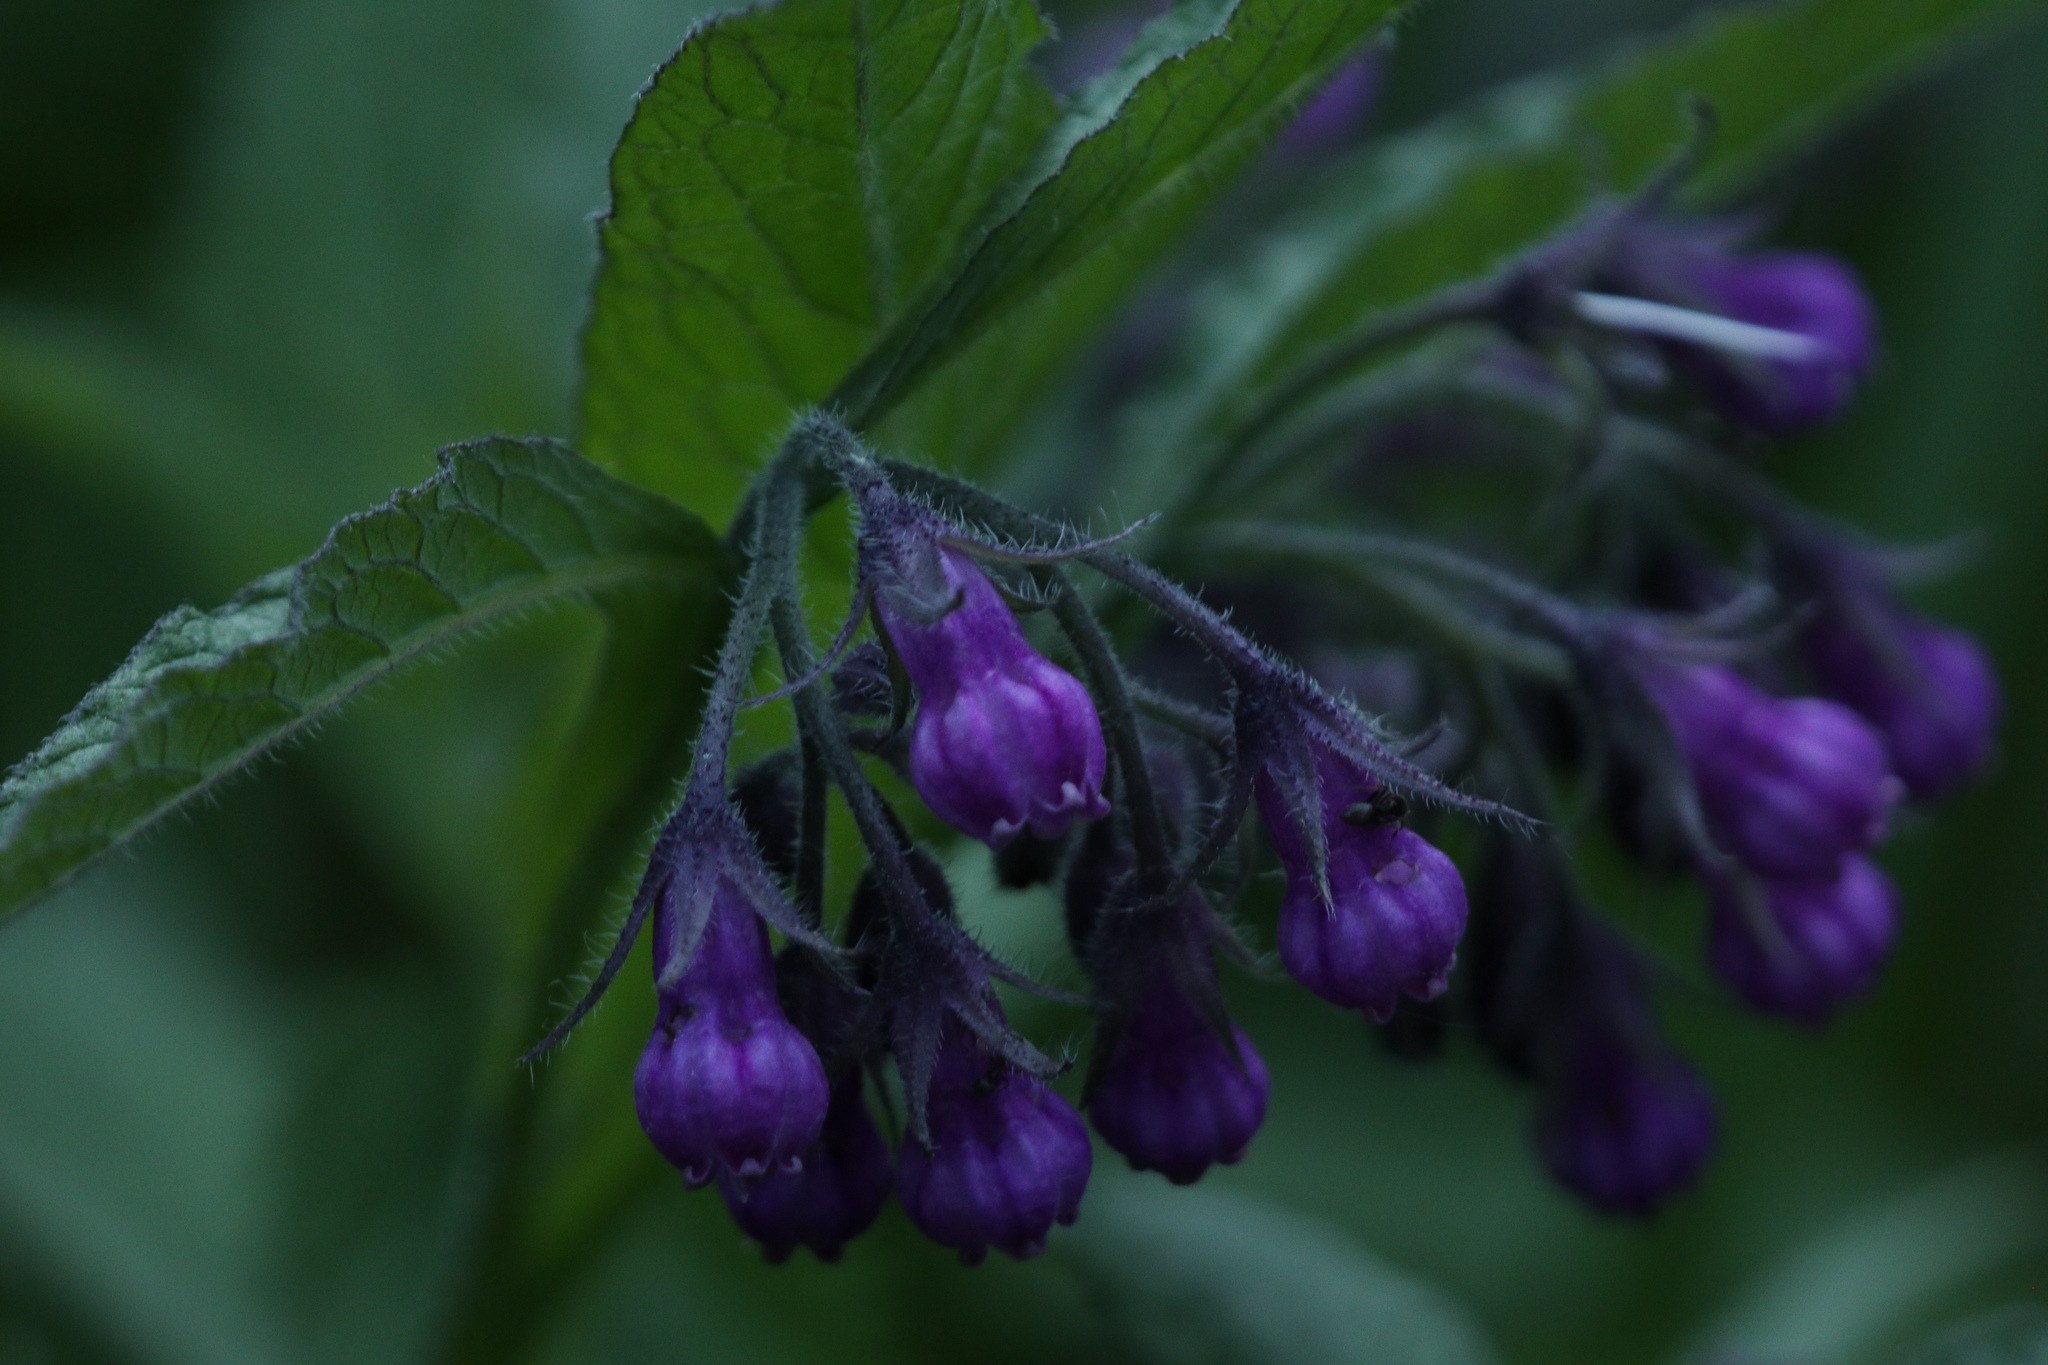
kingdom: Plantae
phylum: Tracheophyta
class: Magnoliopsida
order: Boraginales
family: Boraginaceae
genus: Symphytum
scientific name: Symphytum officinale
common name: Common comfrey
